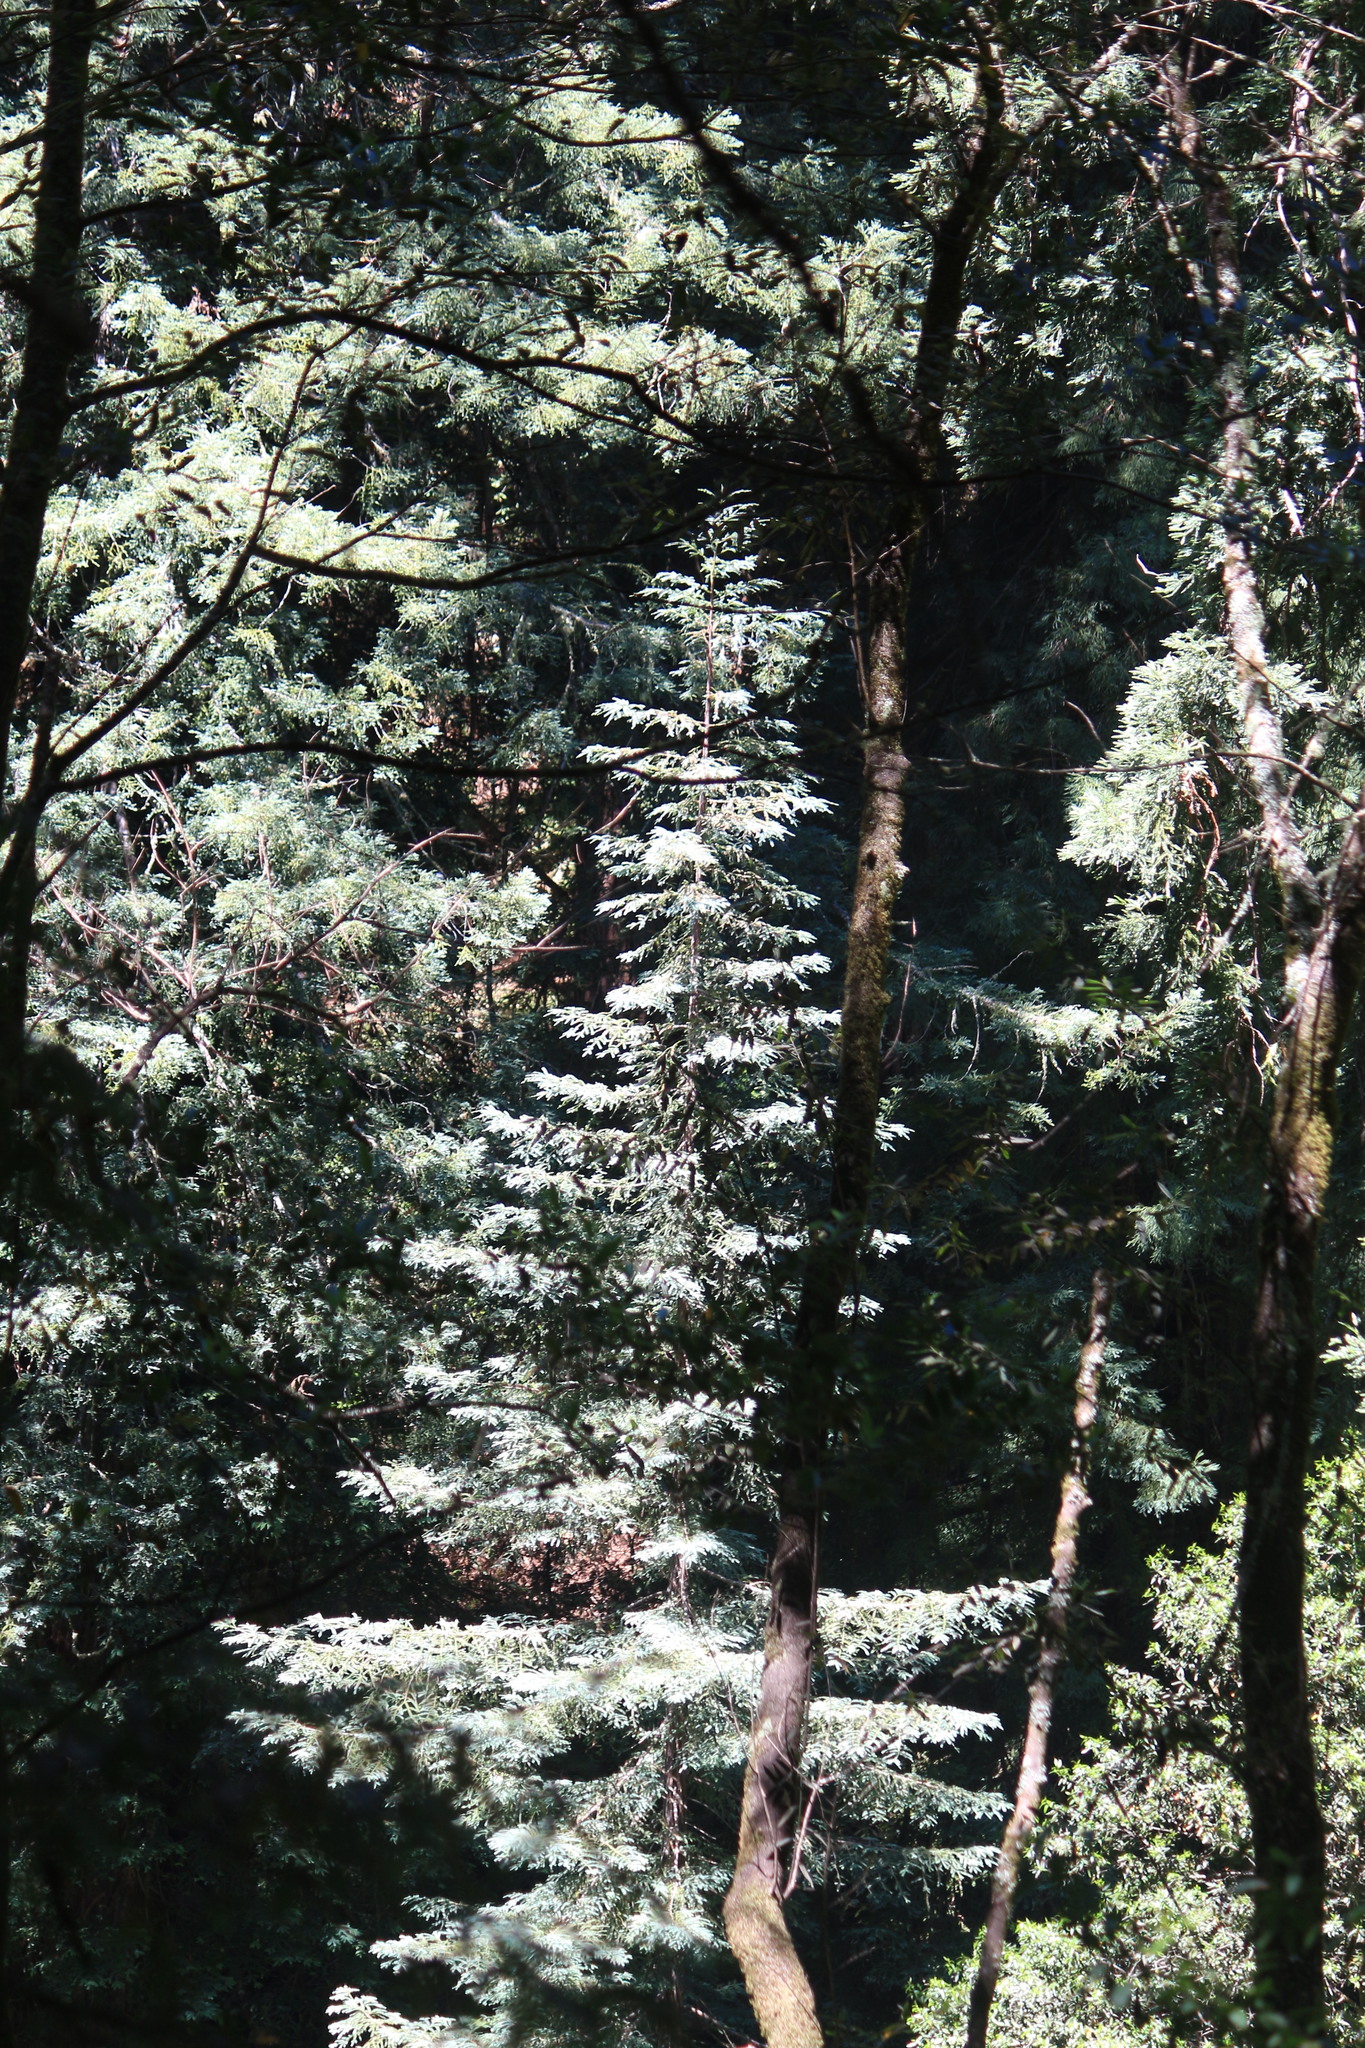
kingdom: Plantae
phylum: Tracheophyta
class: Pinopsida
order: Pinales
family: Cupressaceae
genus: Sequoia
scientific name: Sequoia sempervirens
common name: Coast redwood
